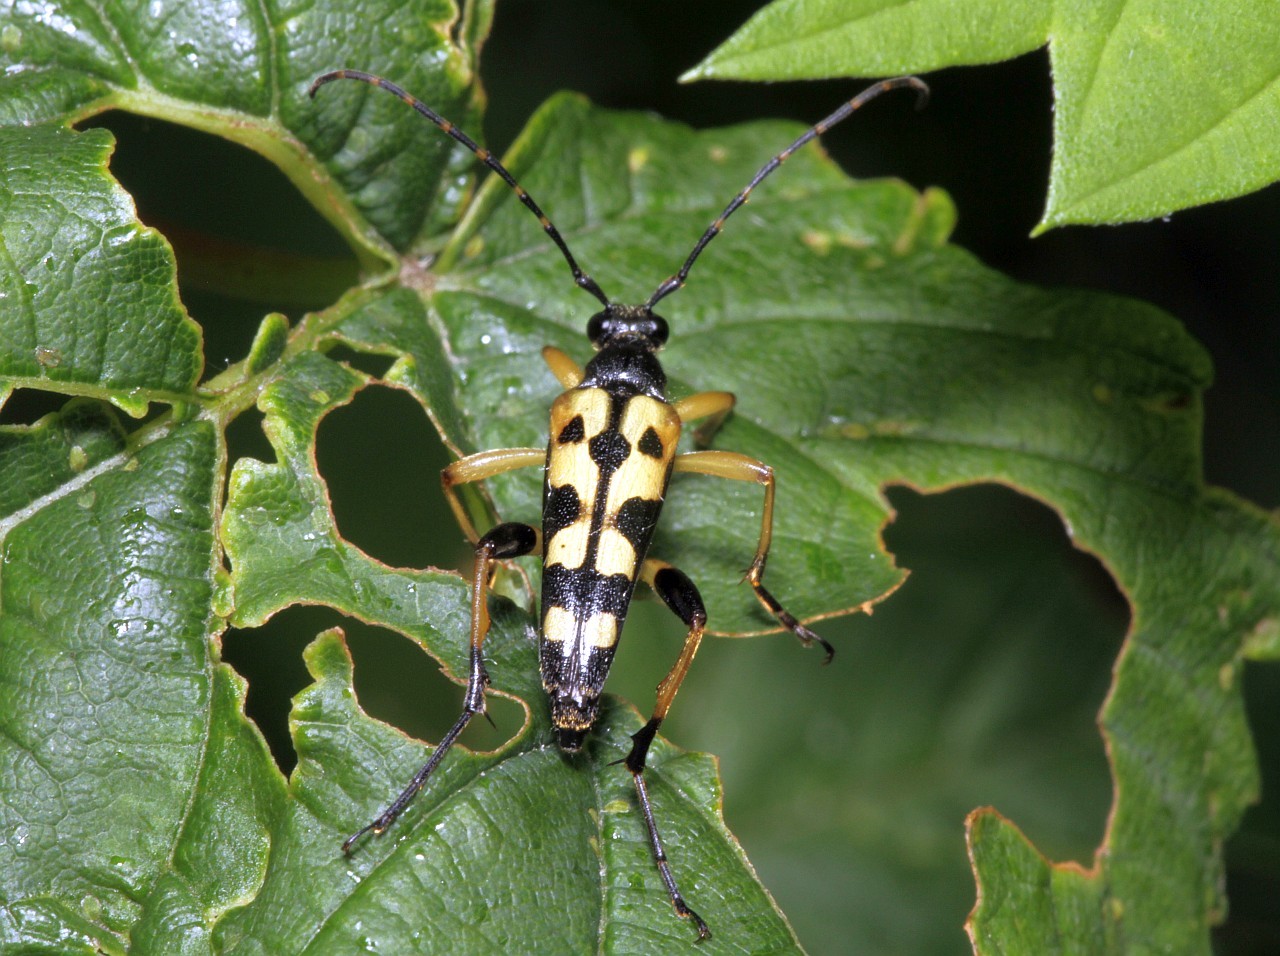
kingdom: Animalia
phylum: Arthropoda
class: Insecta
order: Coleoptera
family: Cerambycidae
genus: Rutpela
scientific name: Rutpela maculata
